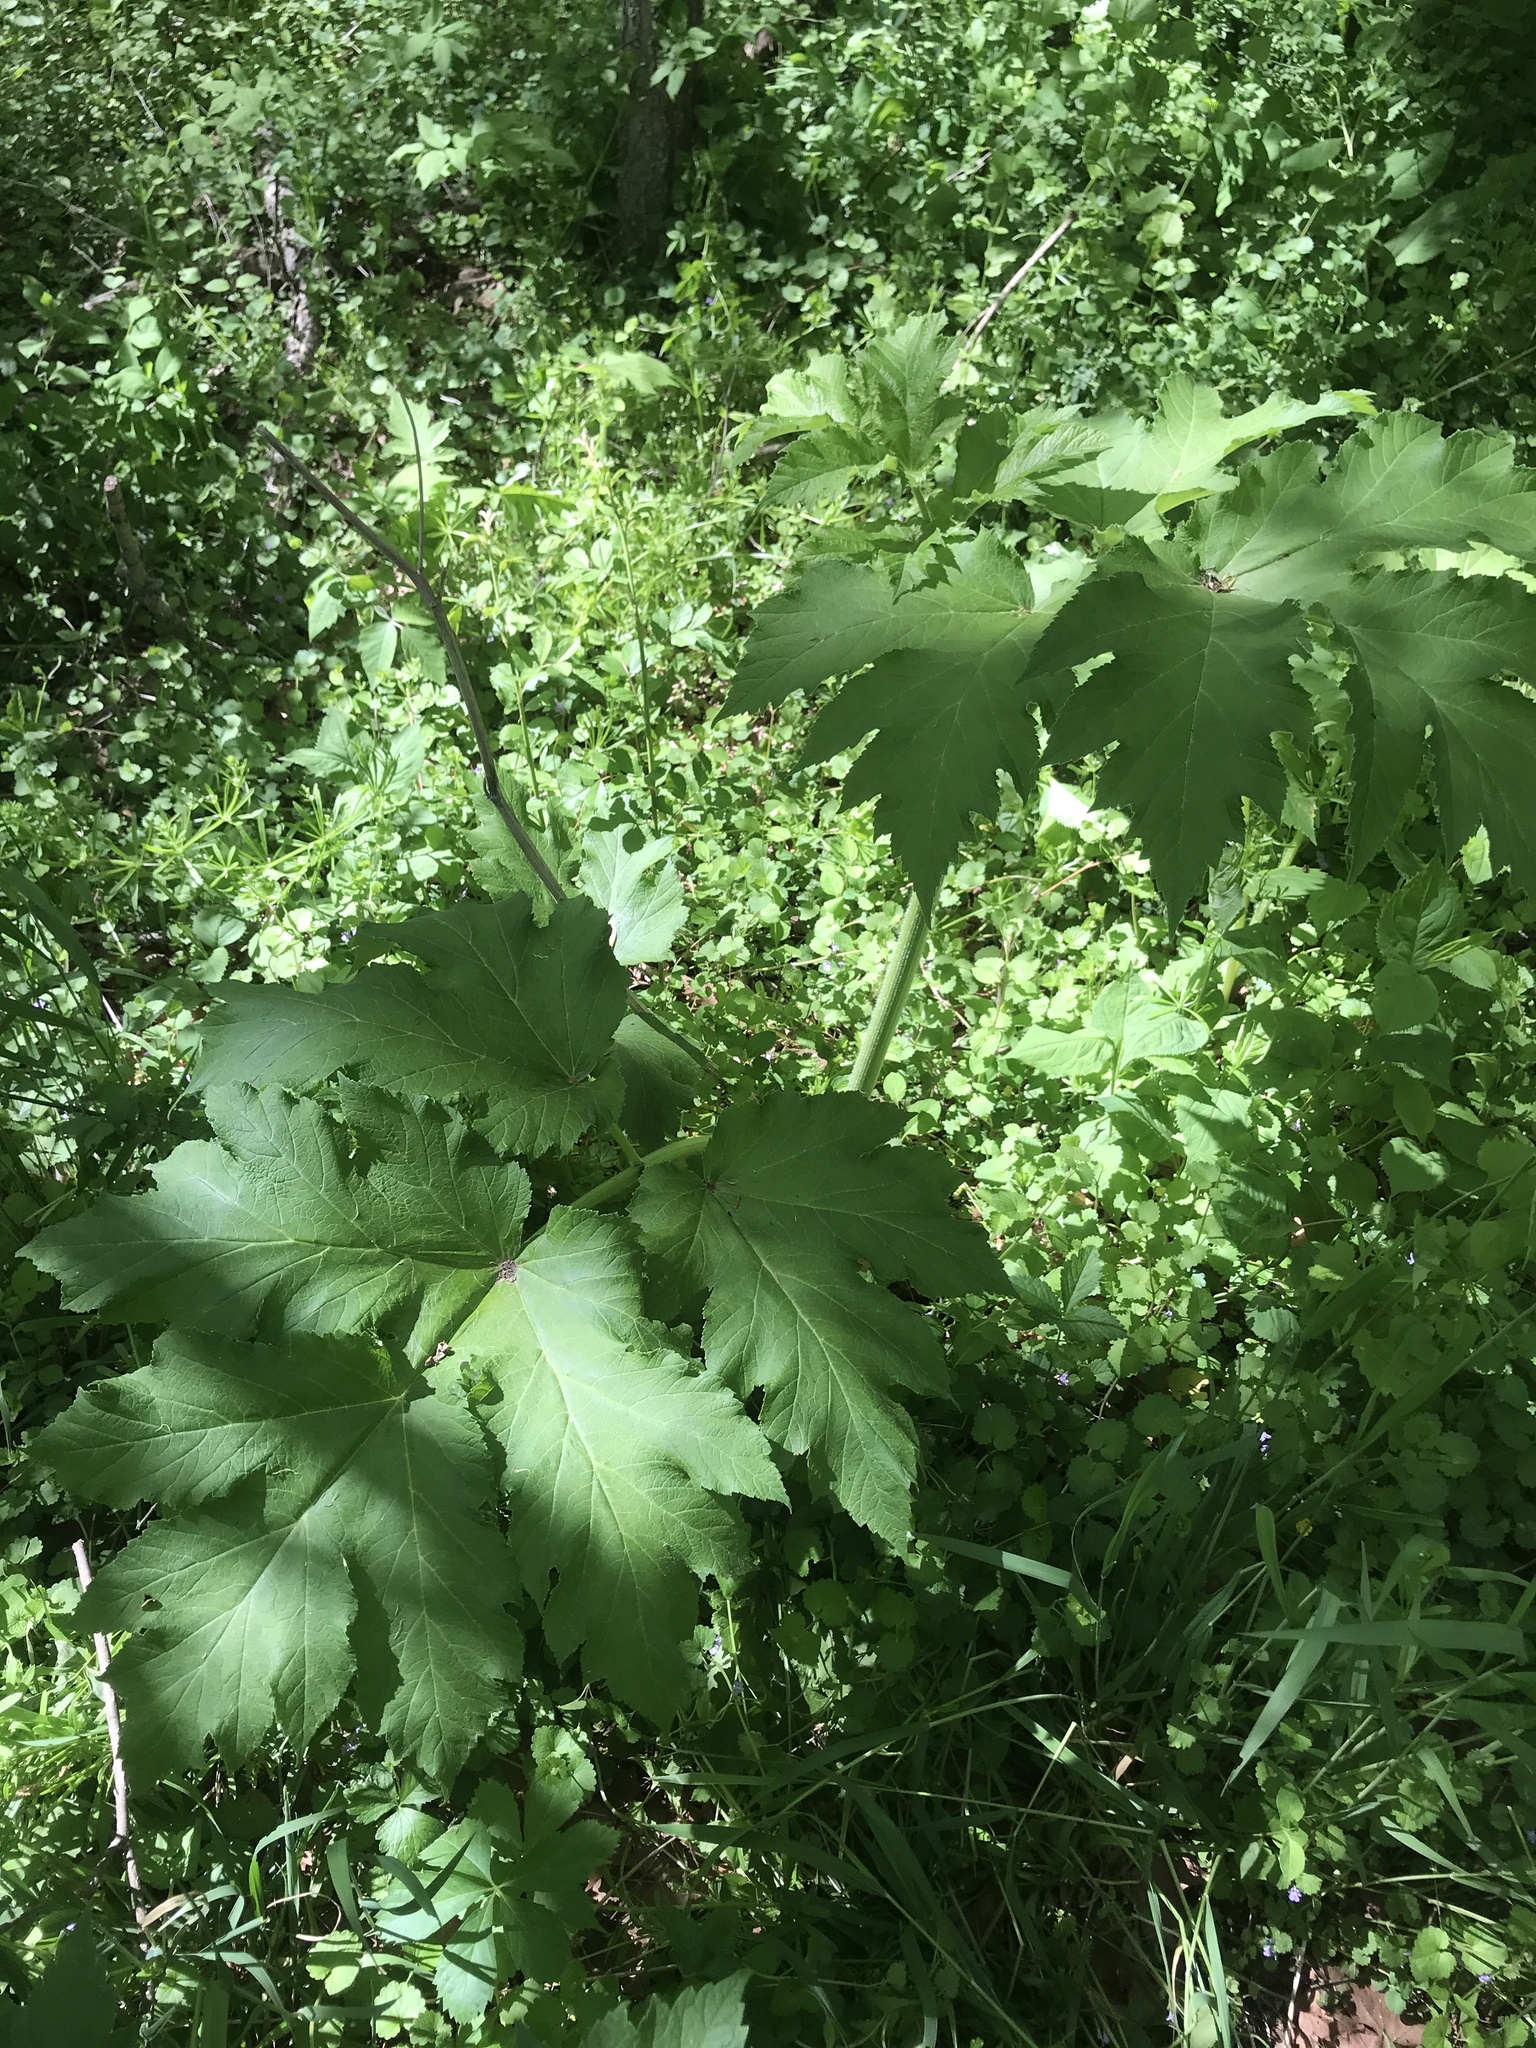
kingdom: Plantae
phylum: Tracheophyta
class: Magnoliopsida
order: Apiales
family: Apiaceae
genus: Heracleum
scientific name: Heracleum maximum
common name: American cow parsnip
